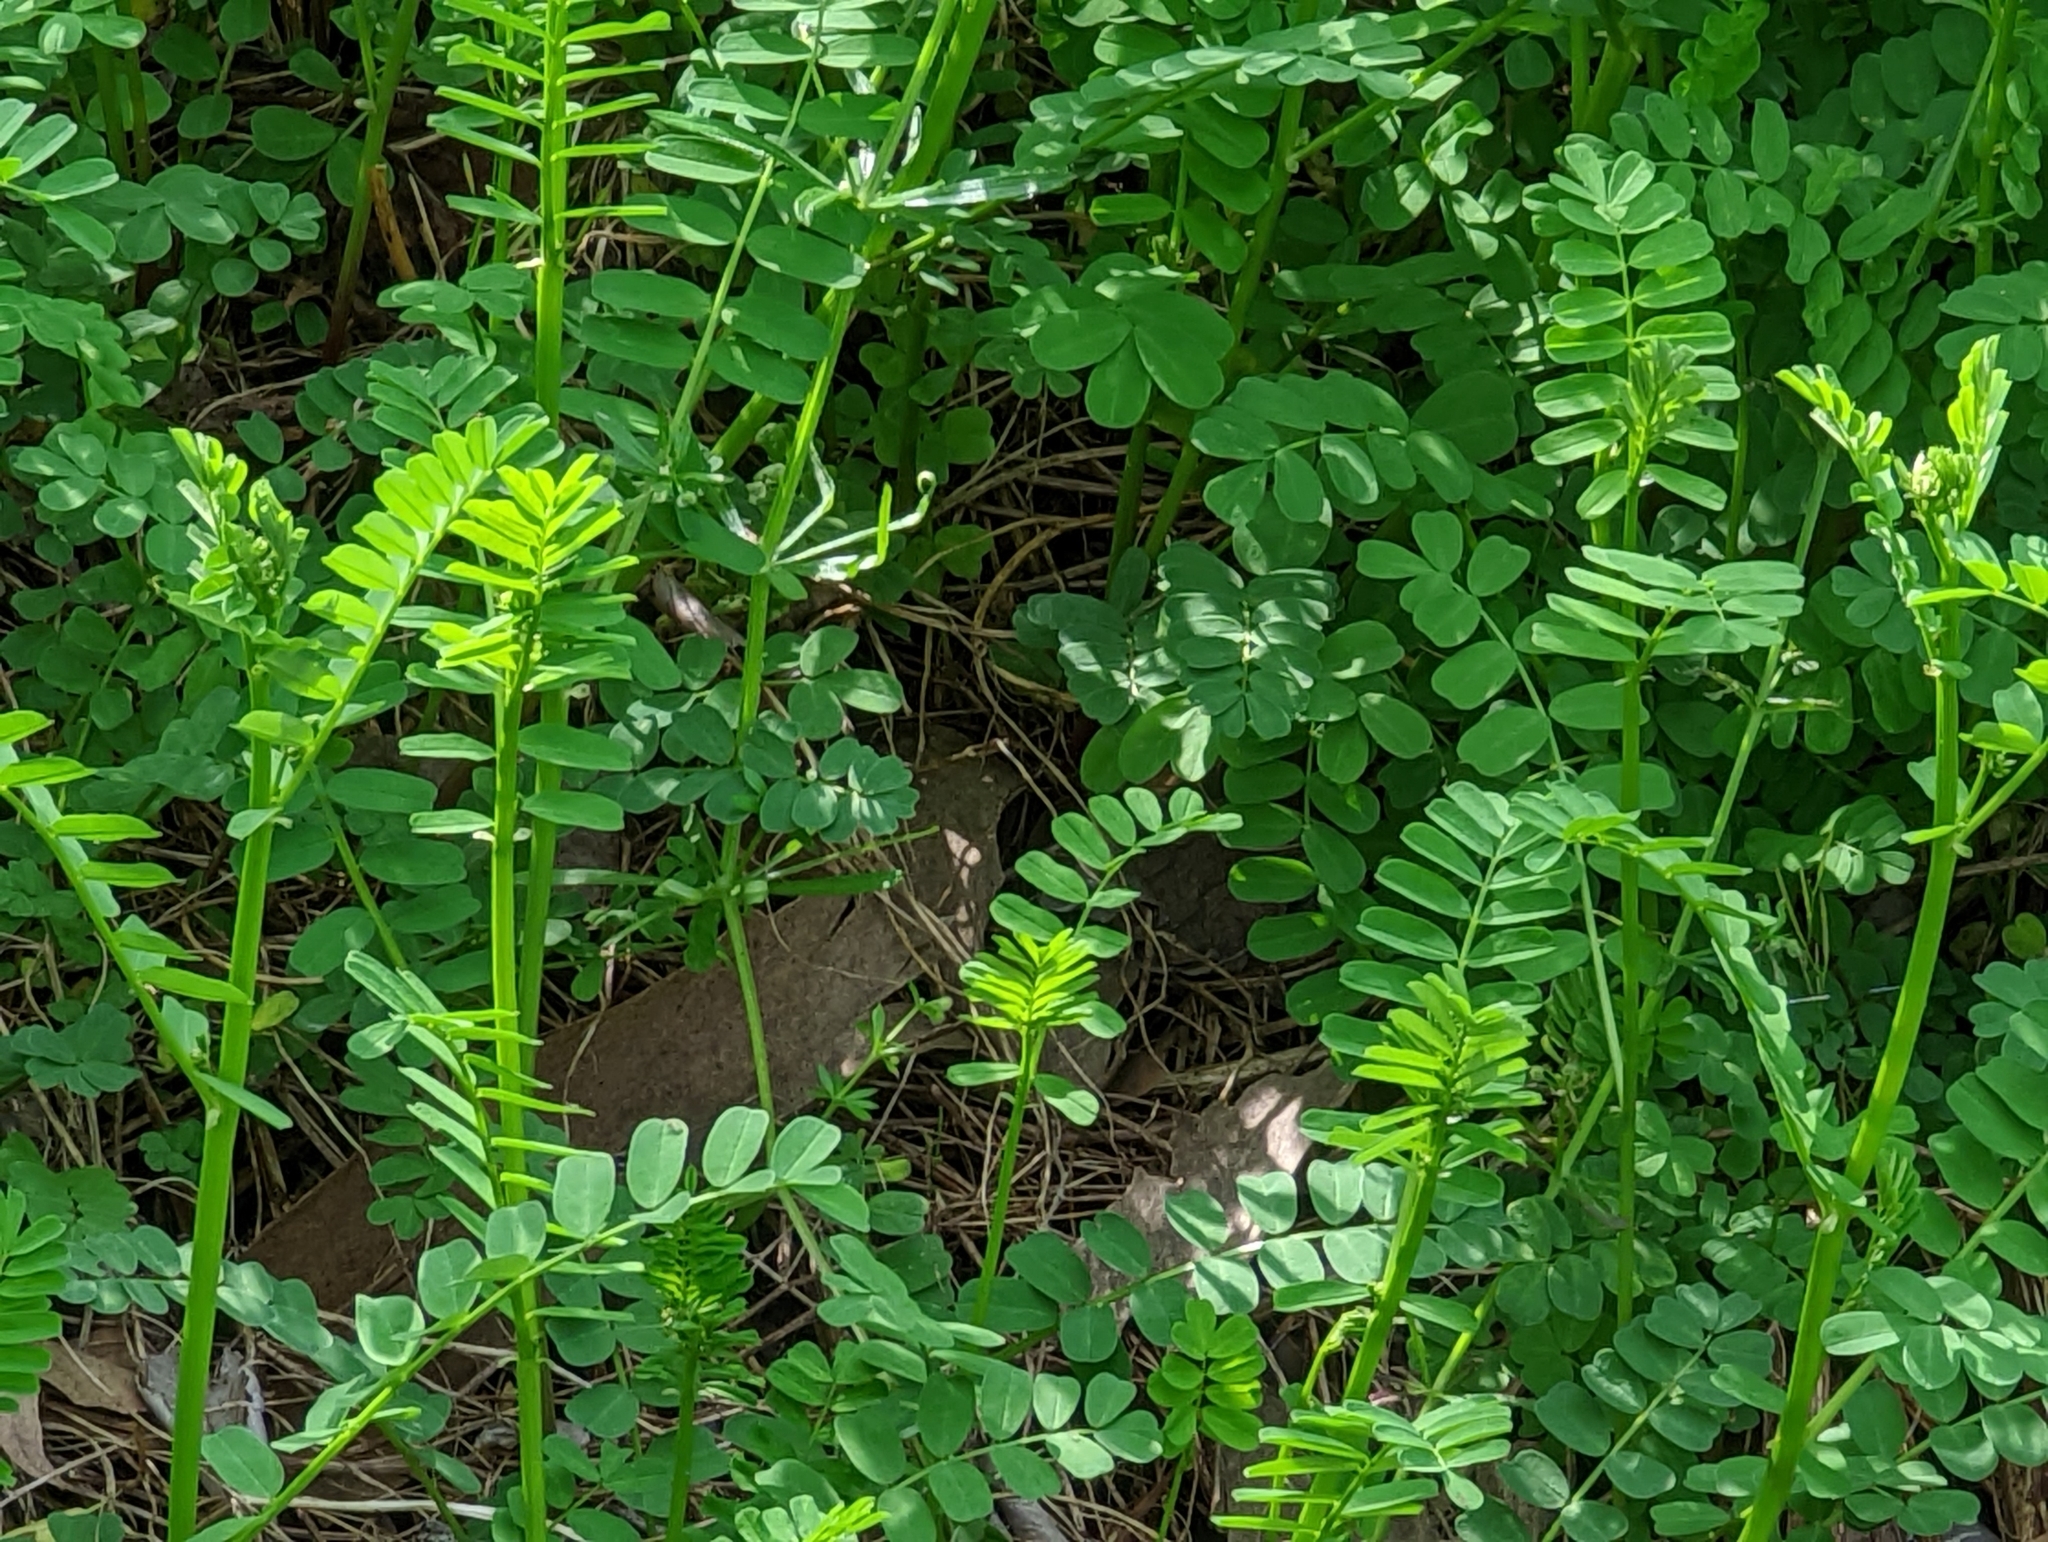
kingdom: Plantae
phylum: Tracheophyta
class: Magnoliopsida
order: Fabales
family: Fabaceae
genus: Coronilla
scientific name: Coronilla varia
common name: Crownvetch
